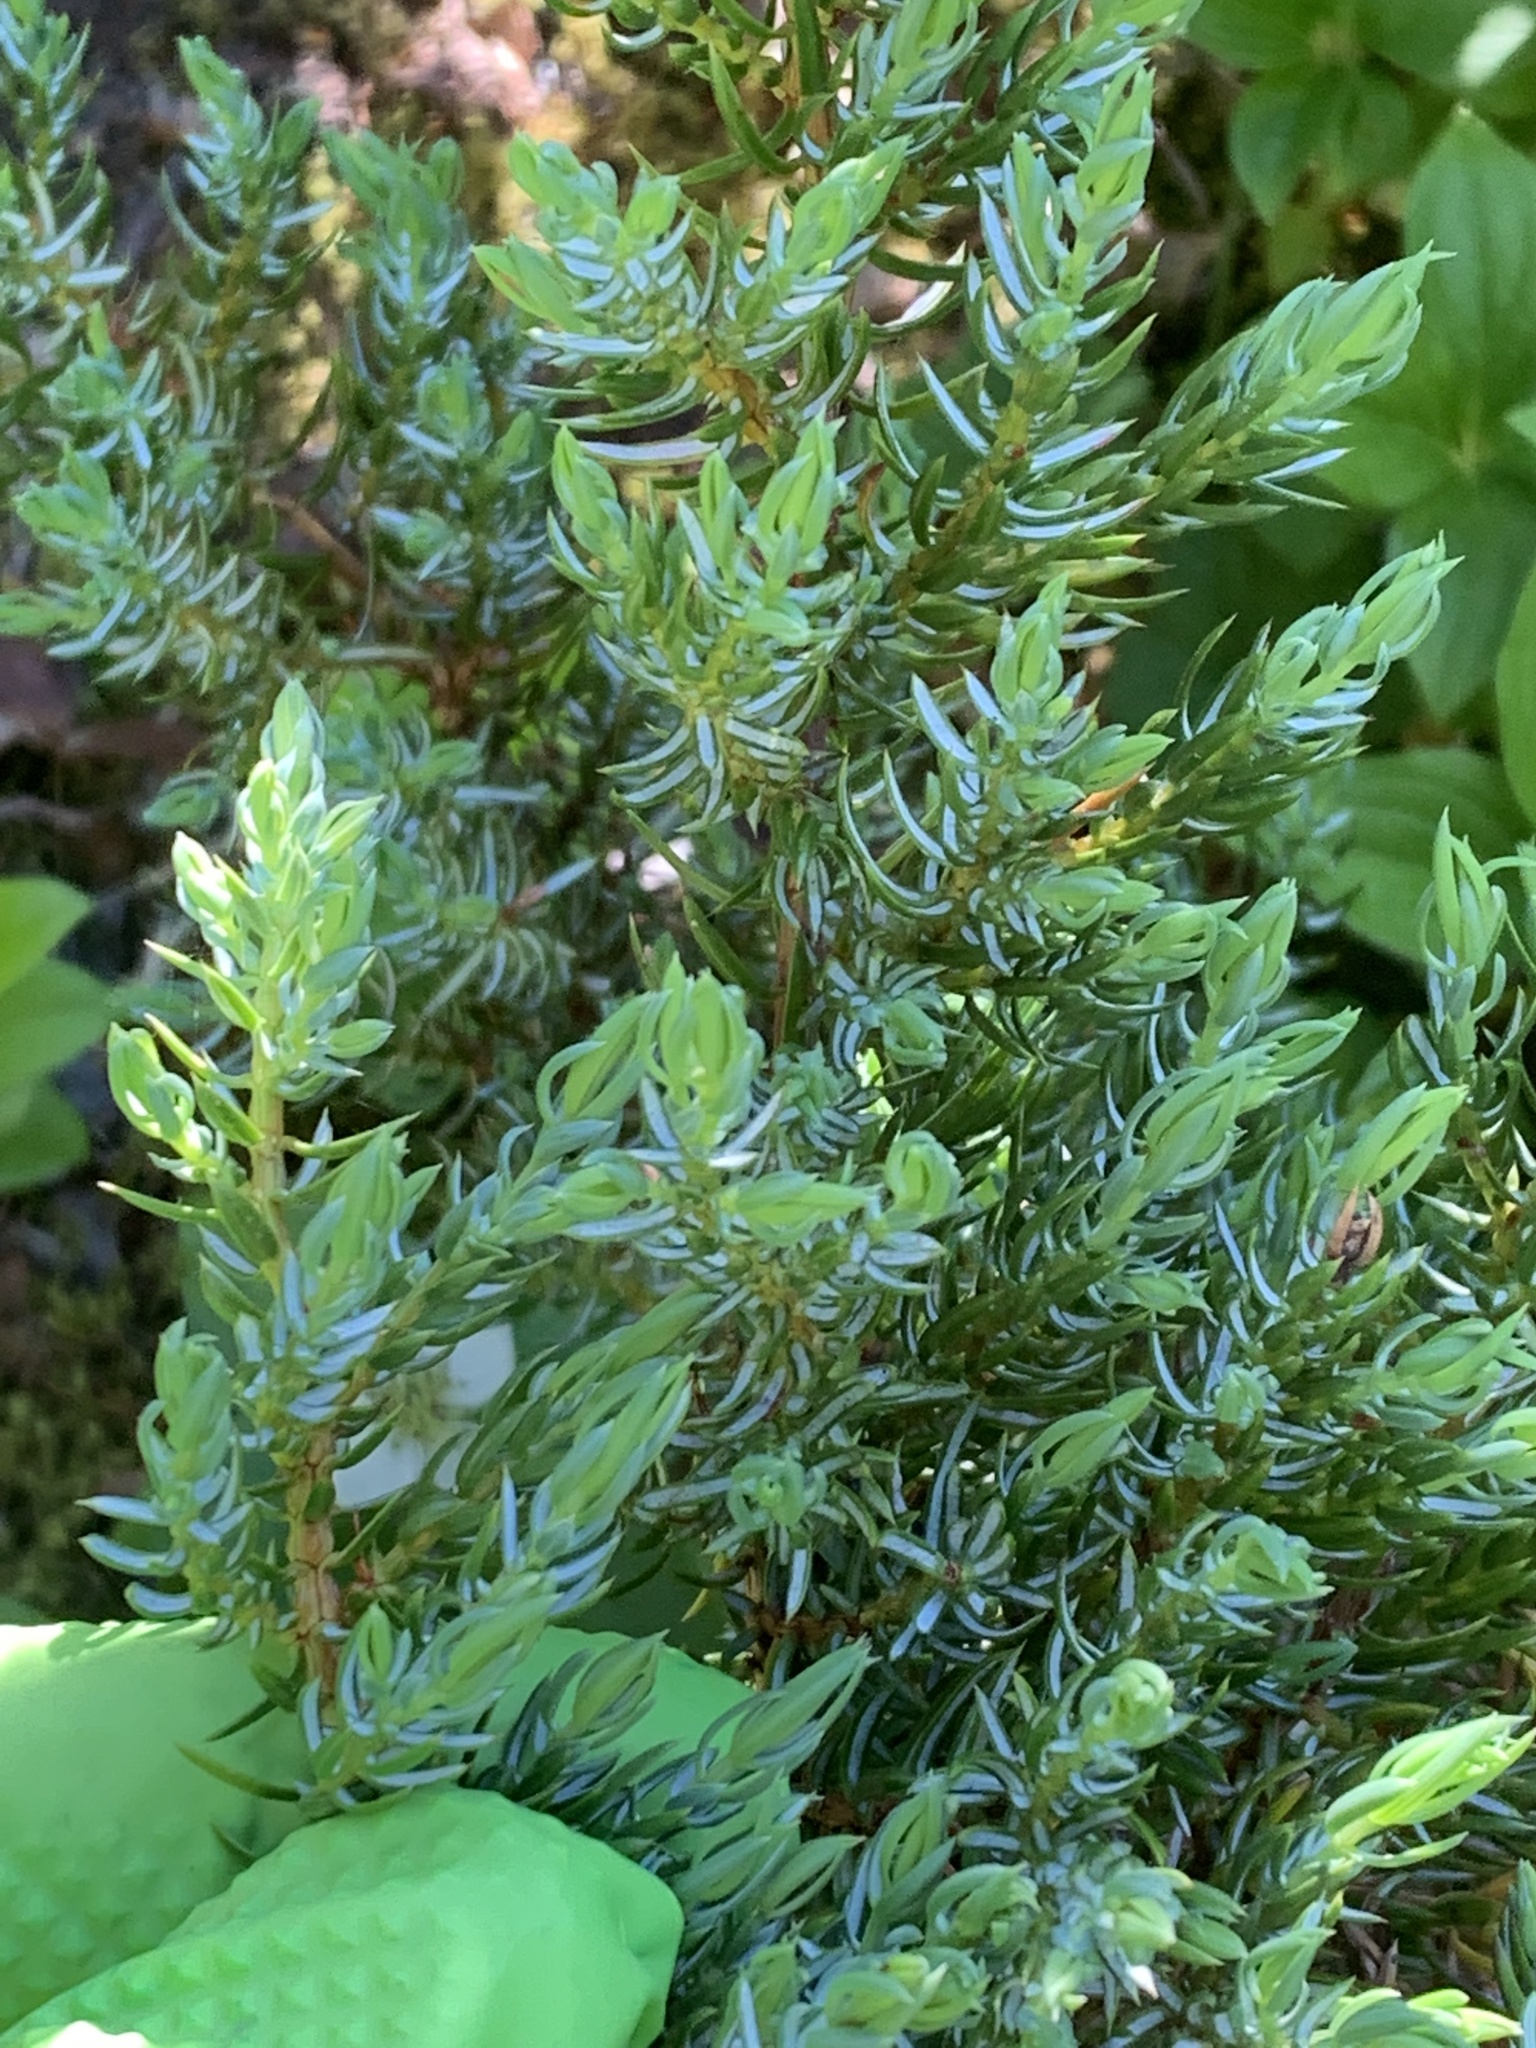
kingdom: Plantae
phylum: Tracheophyta
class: Pinopsida
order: Pinales
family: Cupressaceae
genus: Juniperus
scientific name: Juniperus communis
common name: Common juniper
